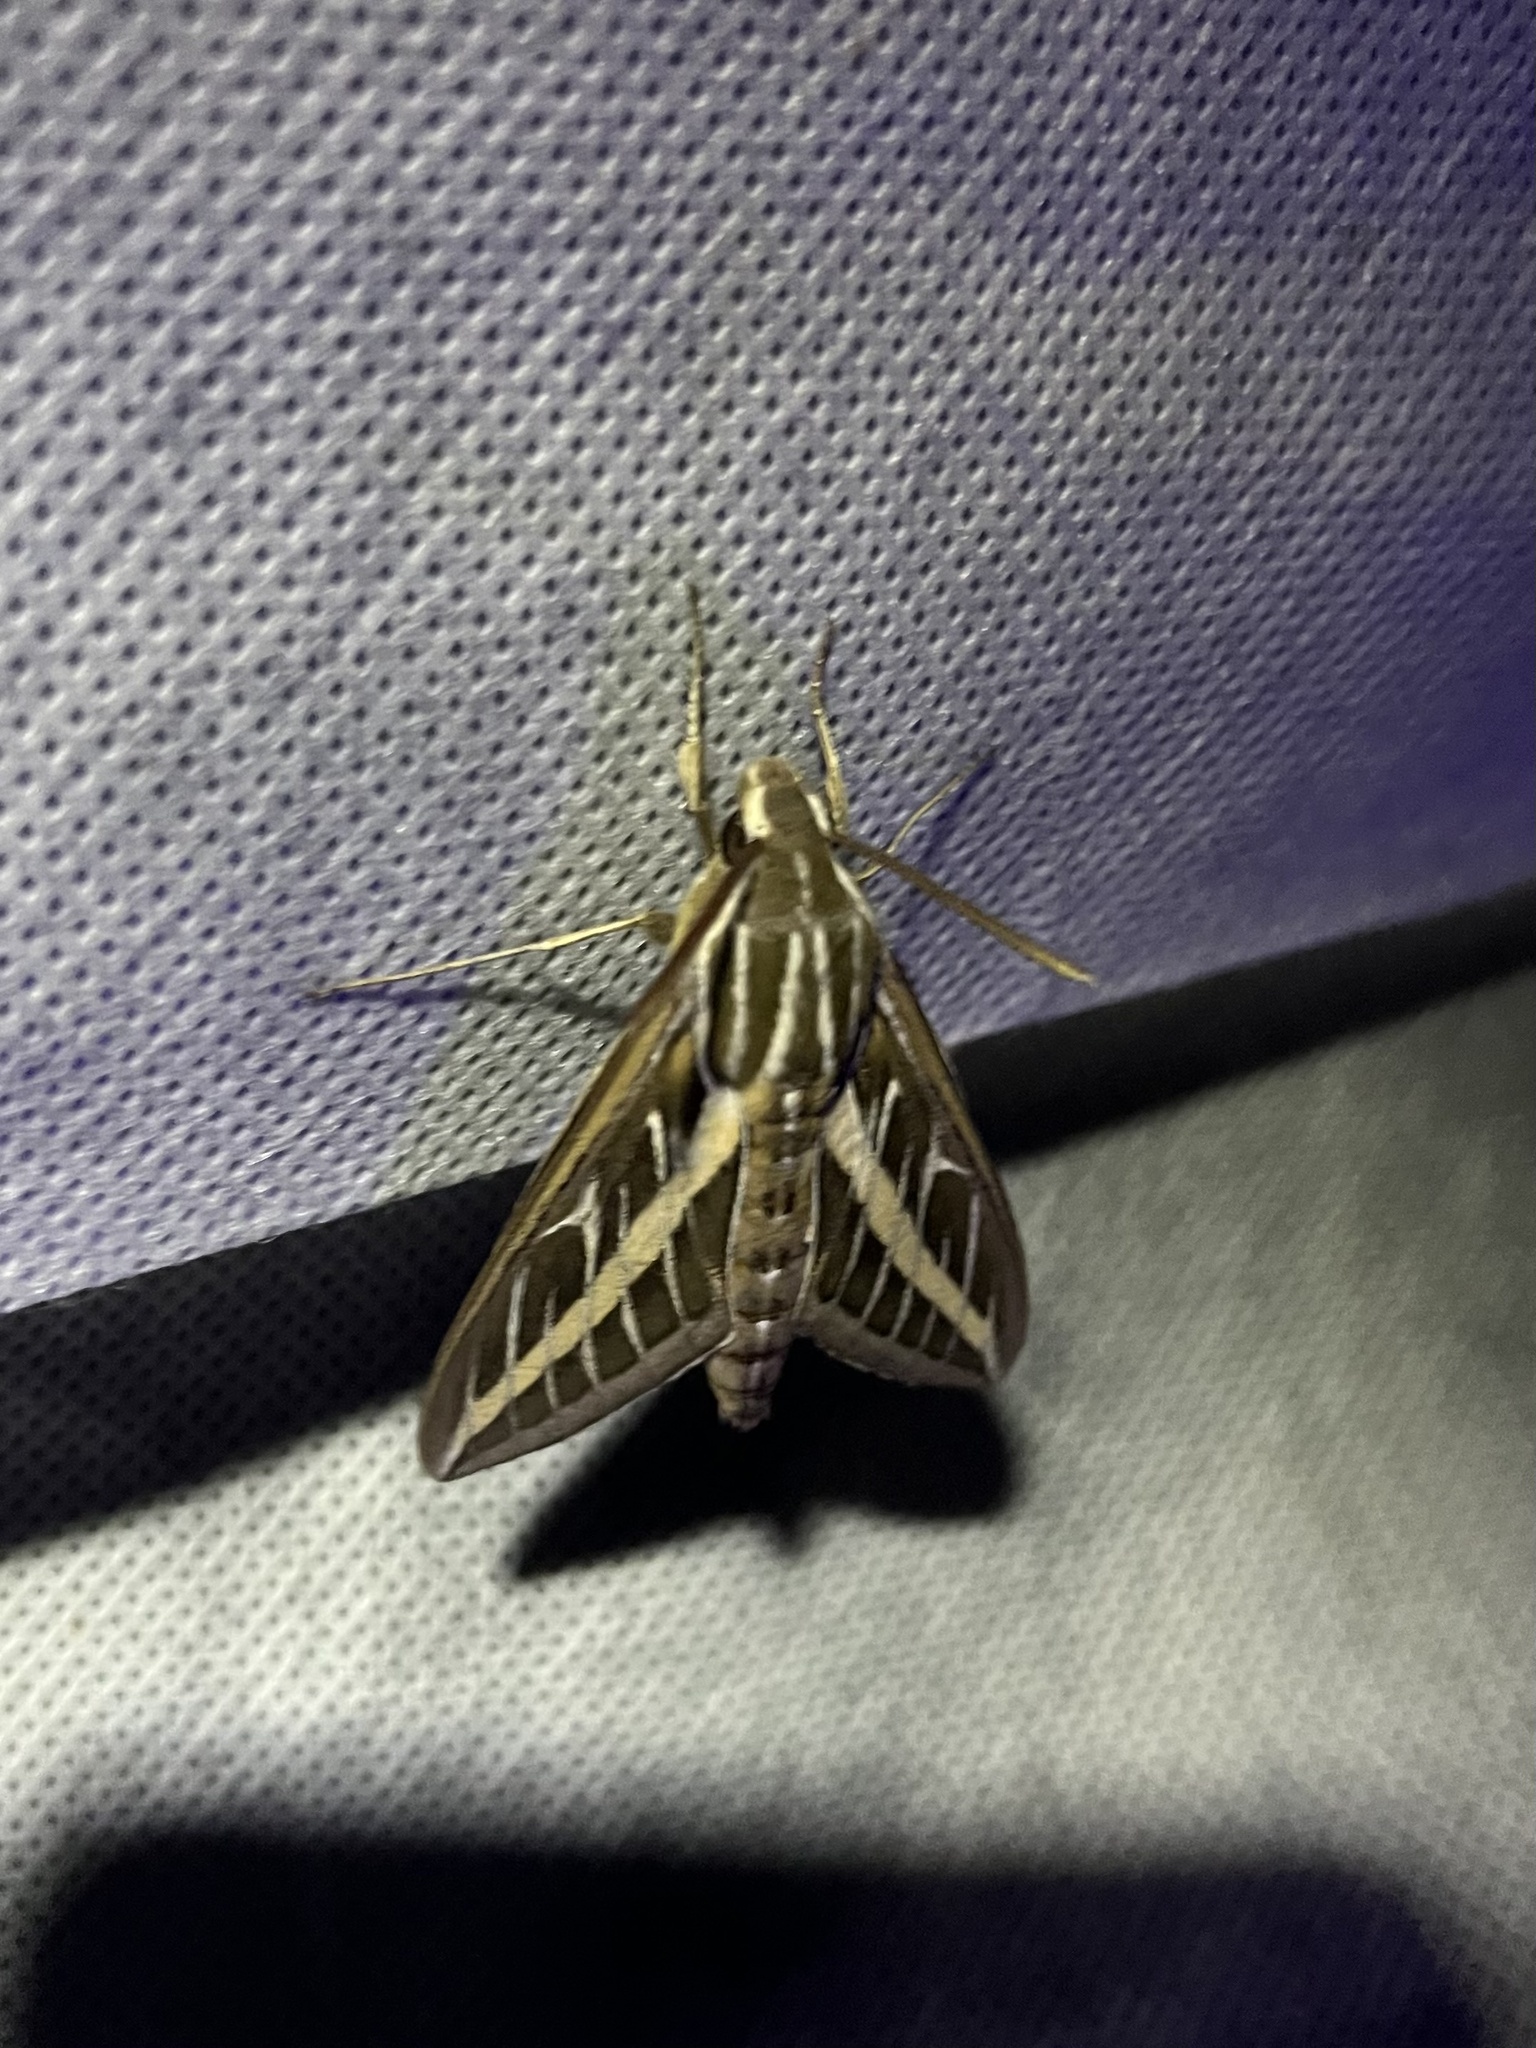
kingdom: Animalia
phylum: Arthropoda
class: Insecta
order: Lepidoptera
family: Sphingidae
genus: Hyles
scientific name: Hyles lineata
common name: White-lined sphinx
